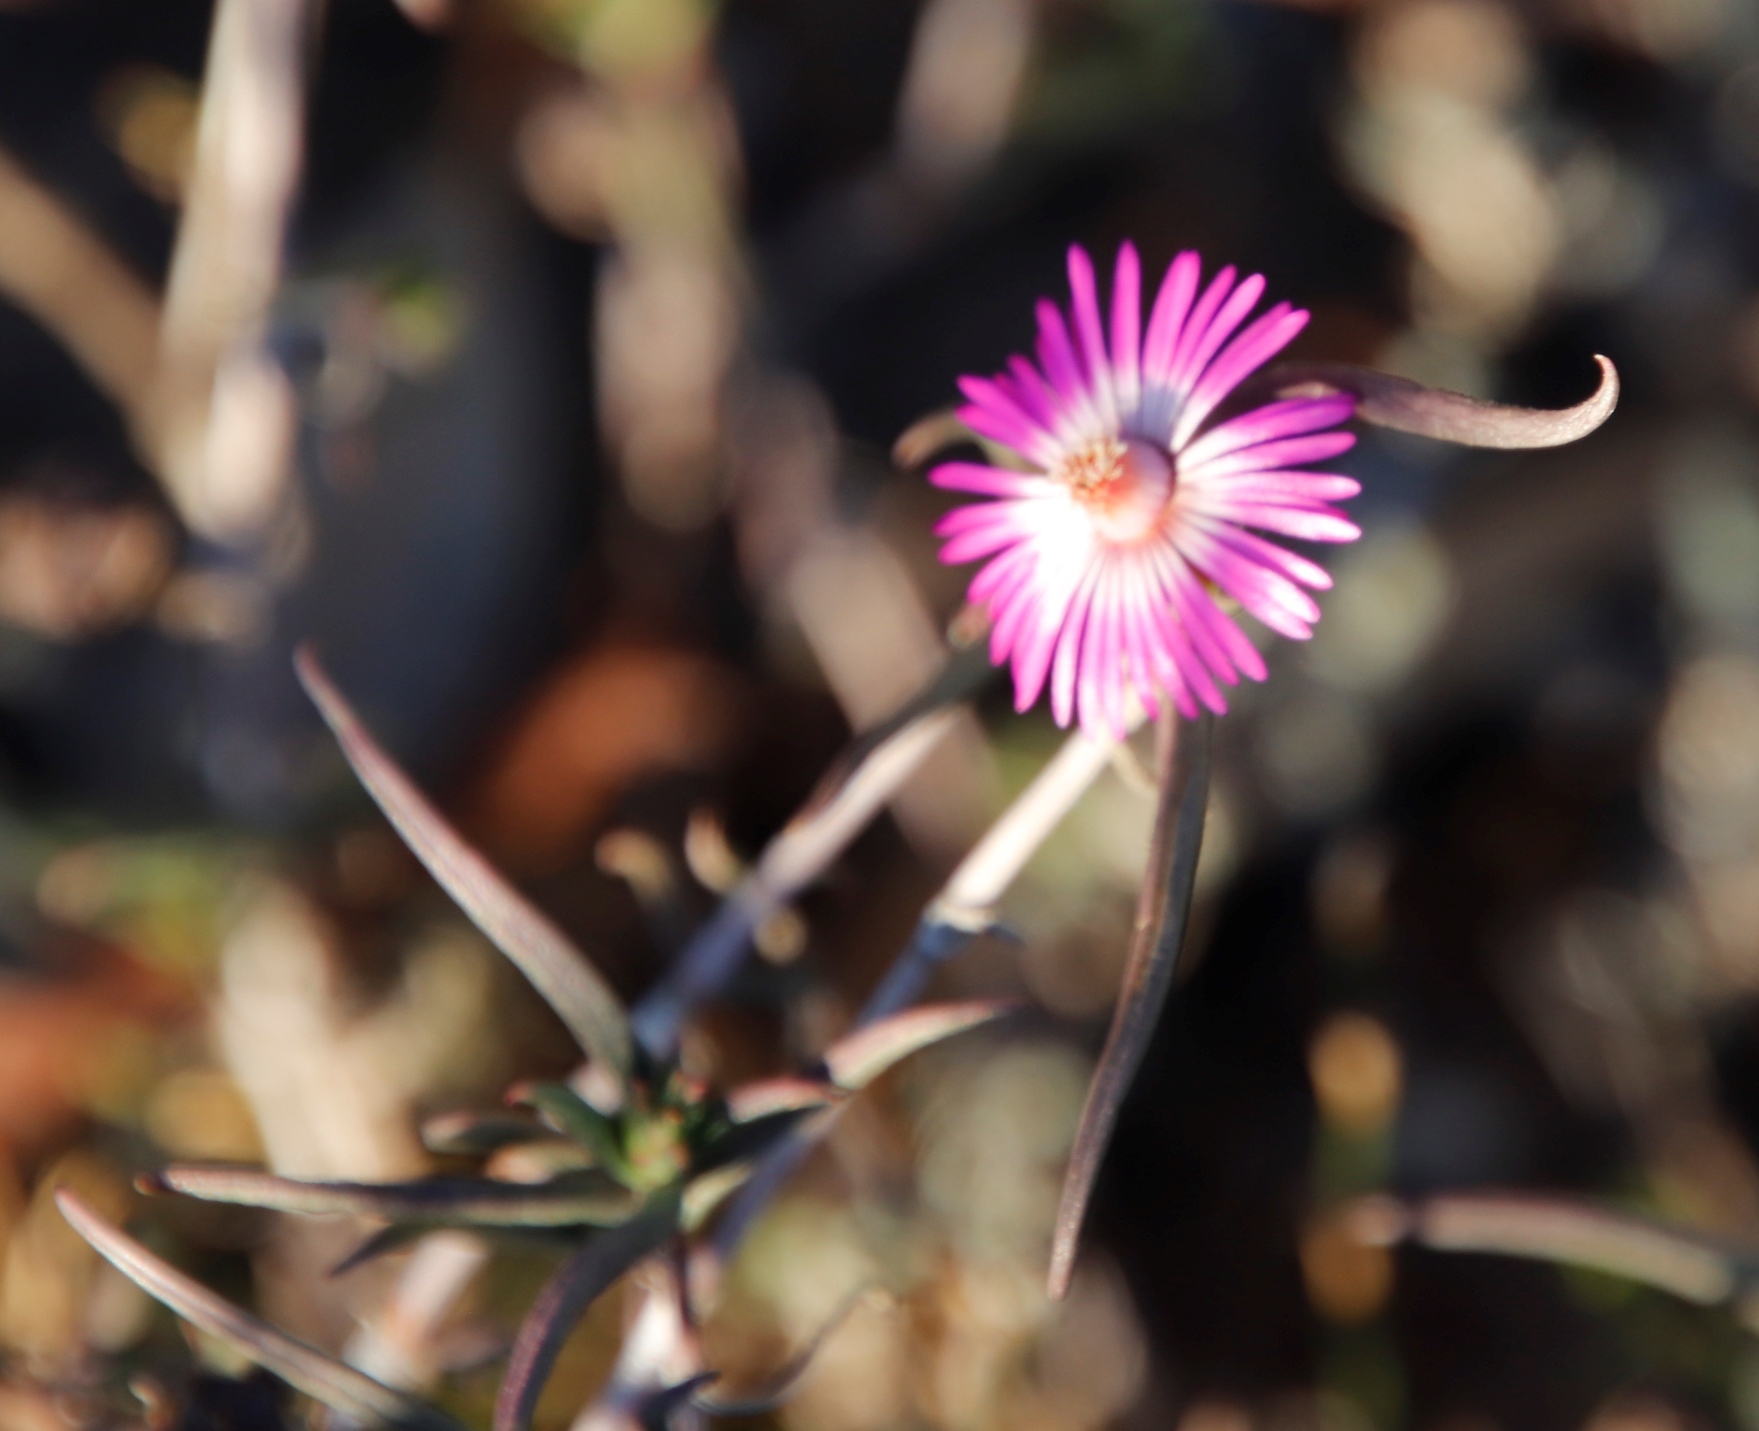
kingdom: Plantae
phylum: Tracheophyta
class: Magnoliopsida
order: Caryophyllales
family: Aizoaceae
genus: Lampranthus
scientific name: Lampranthus spiniformis
